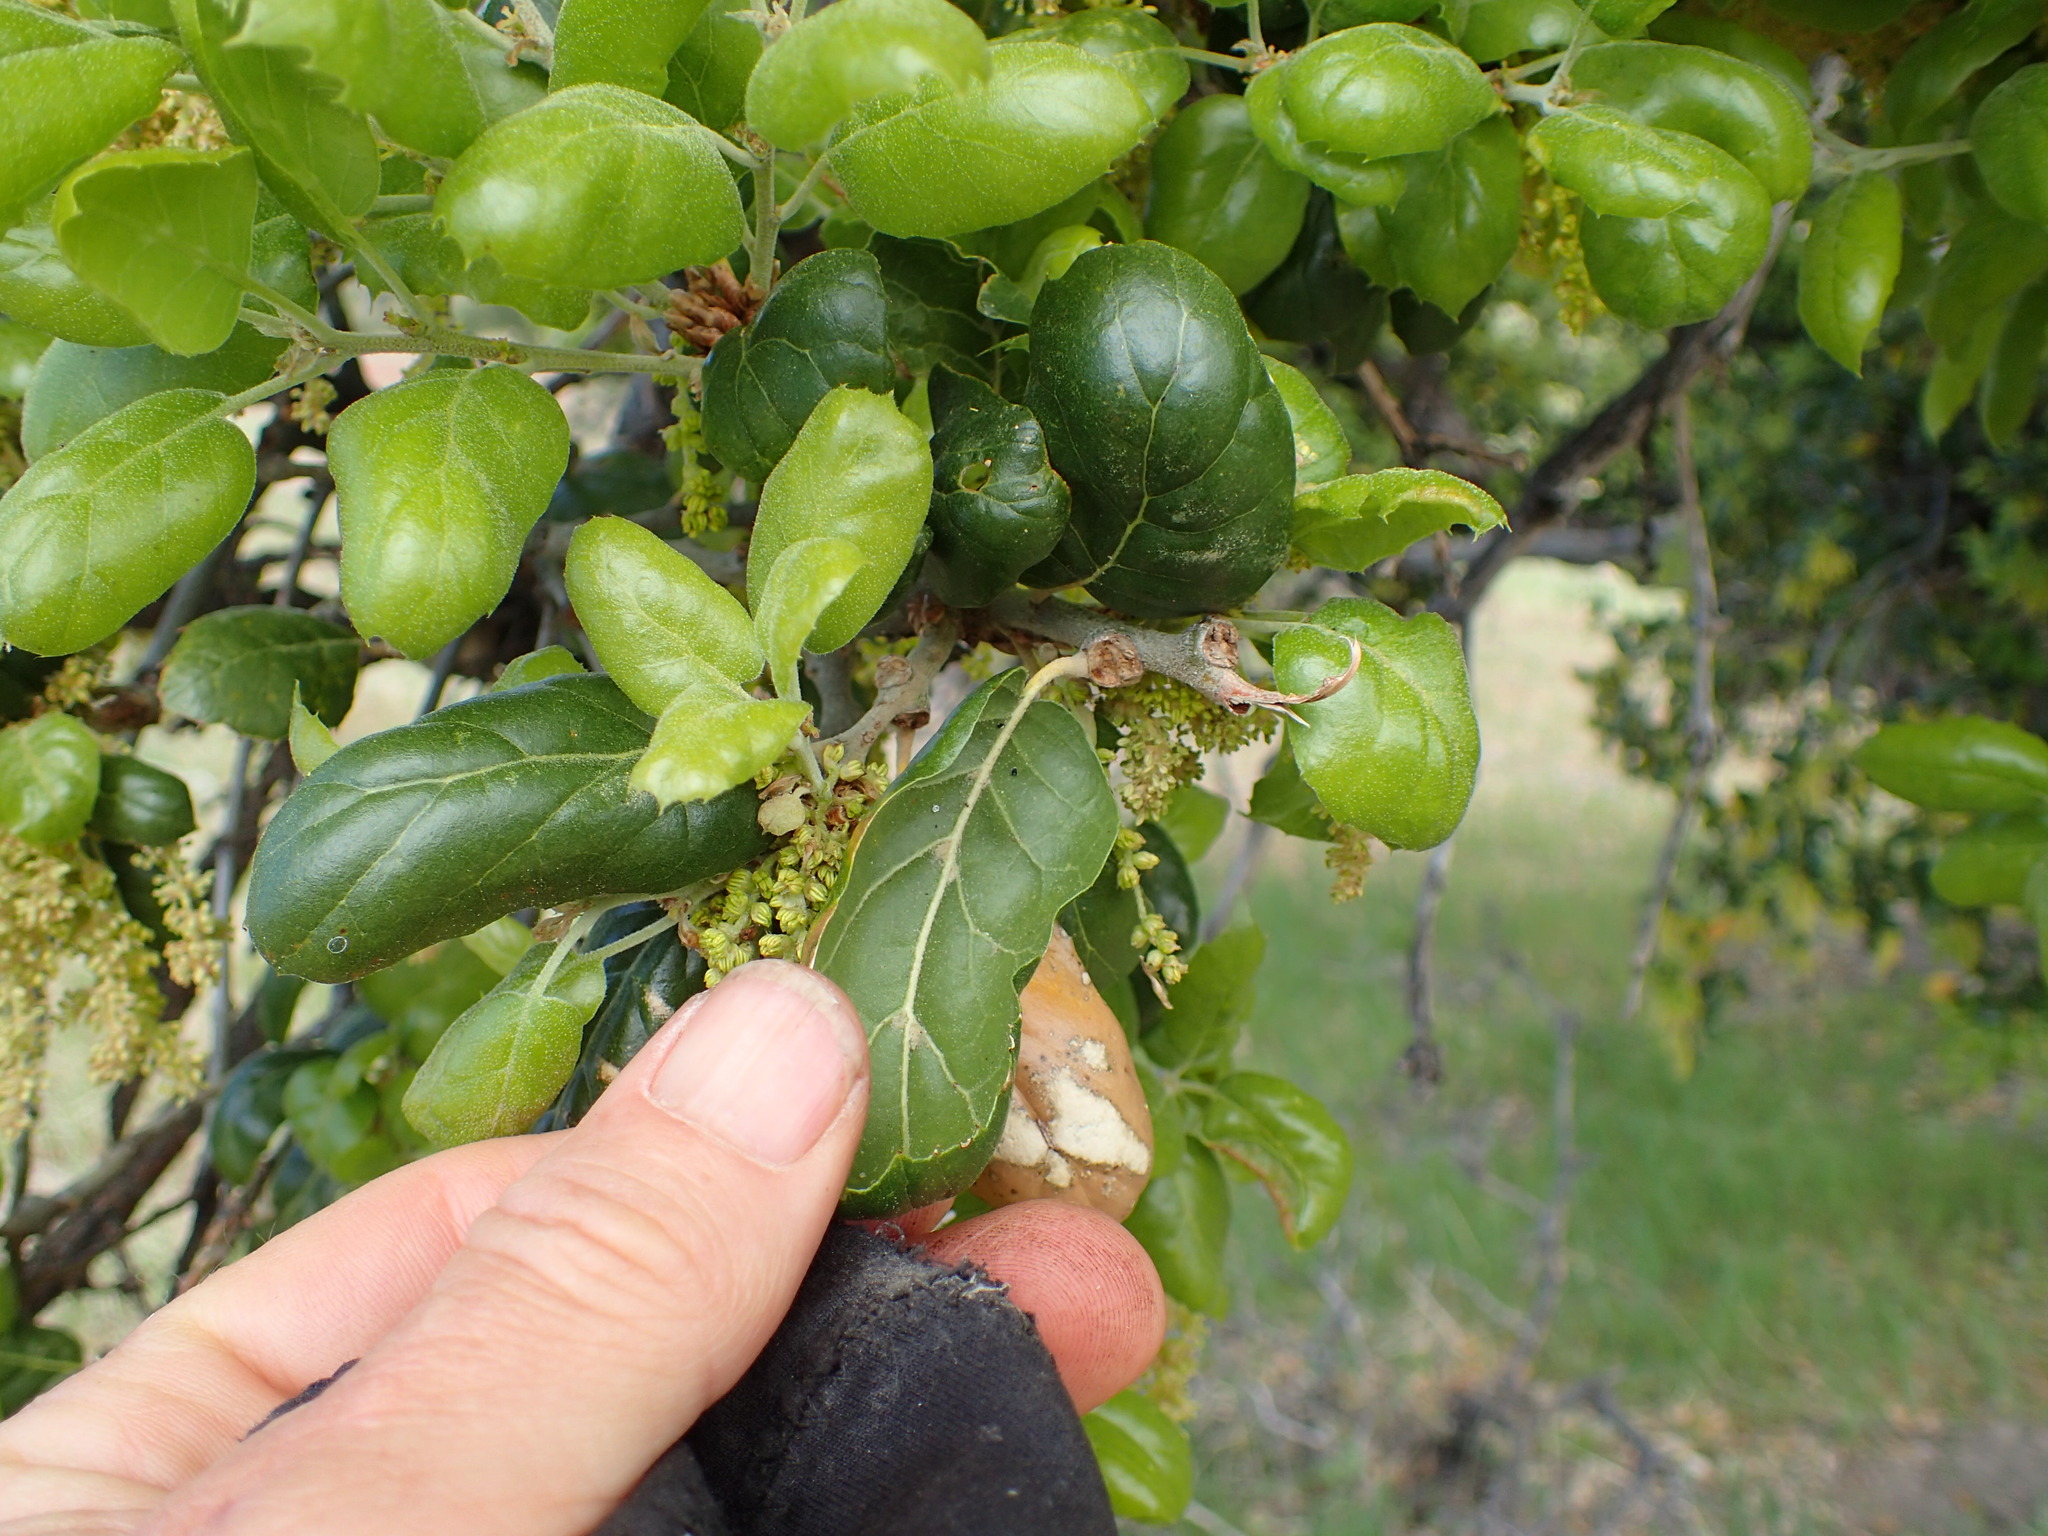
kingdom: Plantae
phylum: Tracheophyta
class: Magnoliopsida
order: Fagales
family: Fagaceae
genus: Quercus
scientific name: Quercus agrifolia
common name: California live oak
